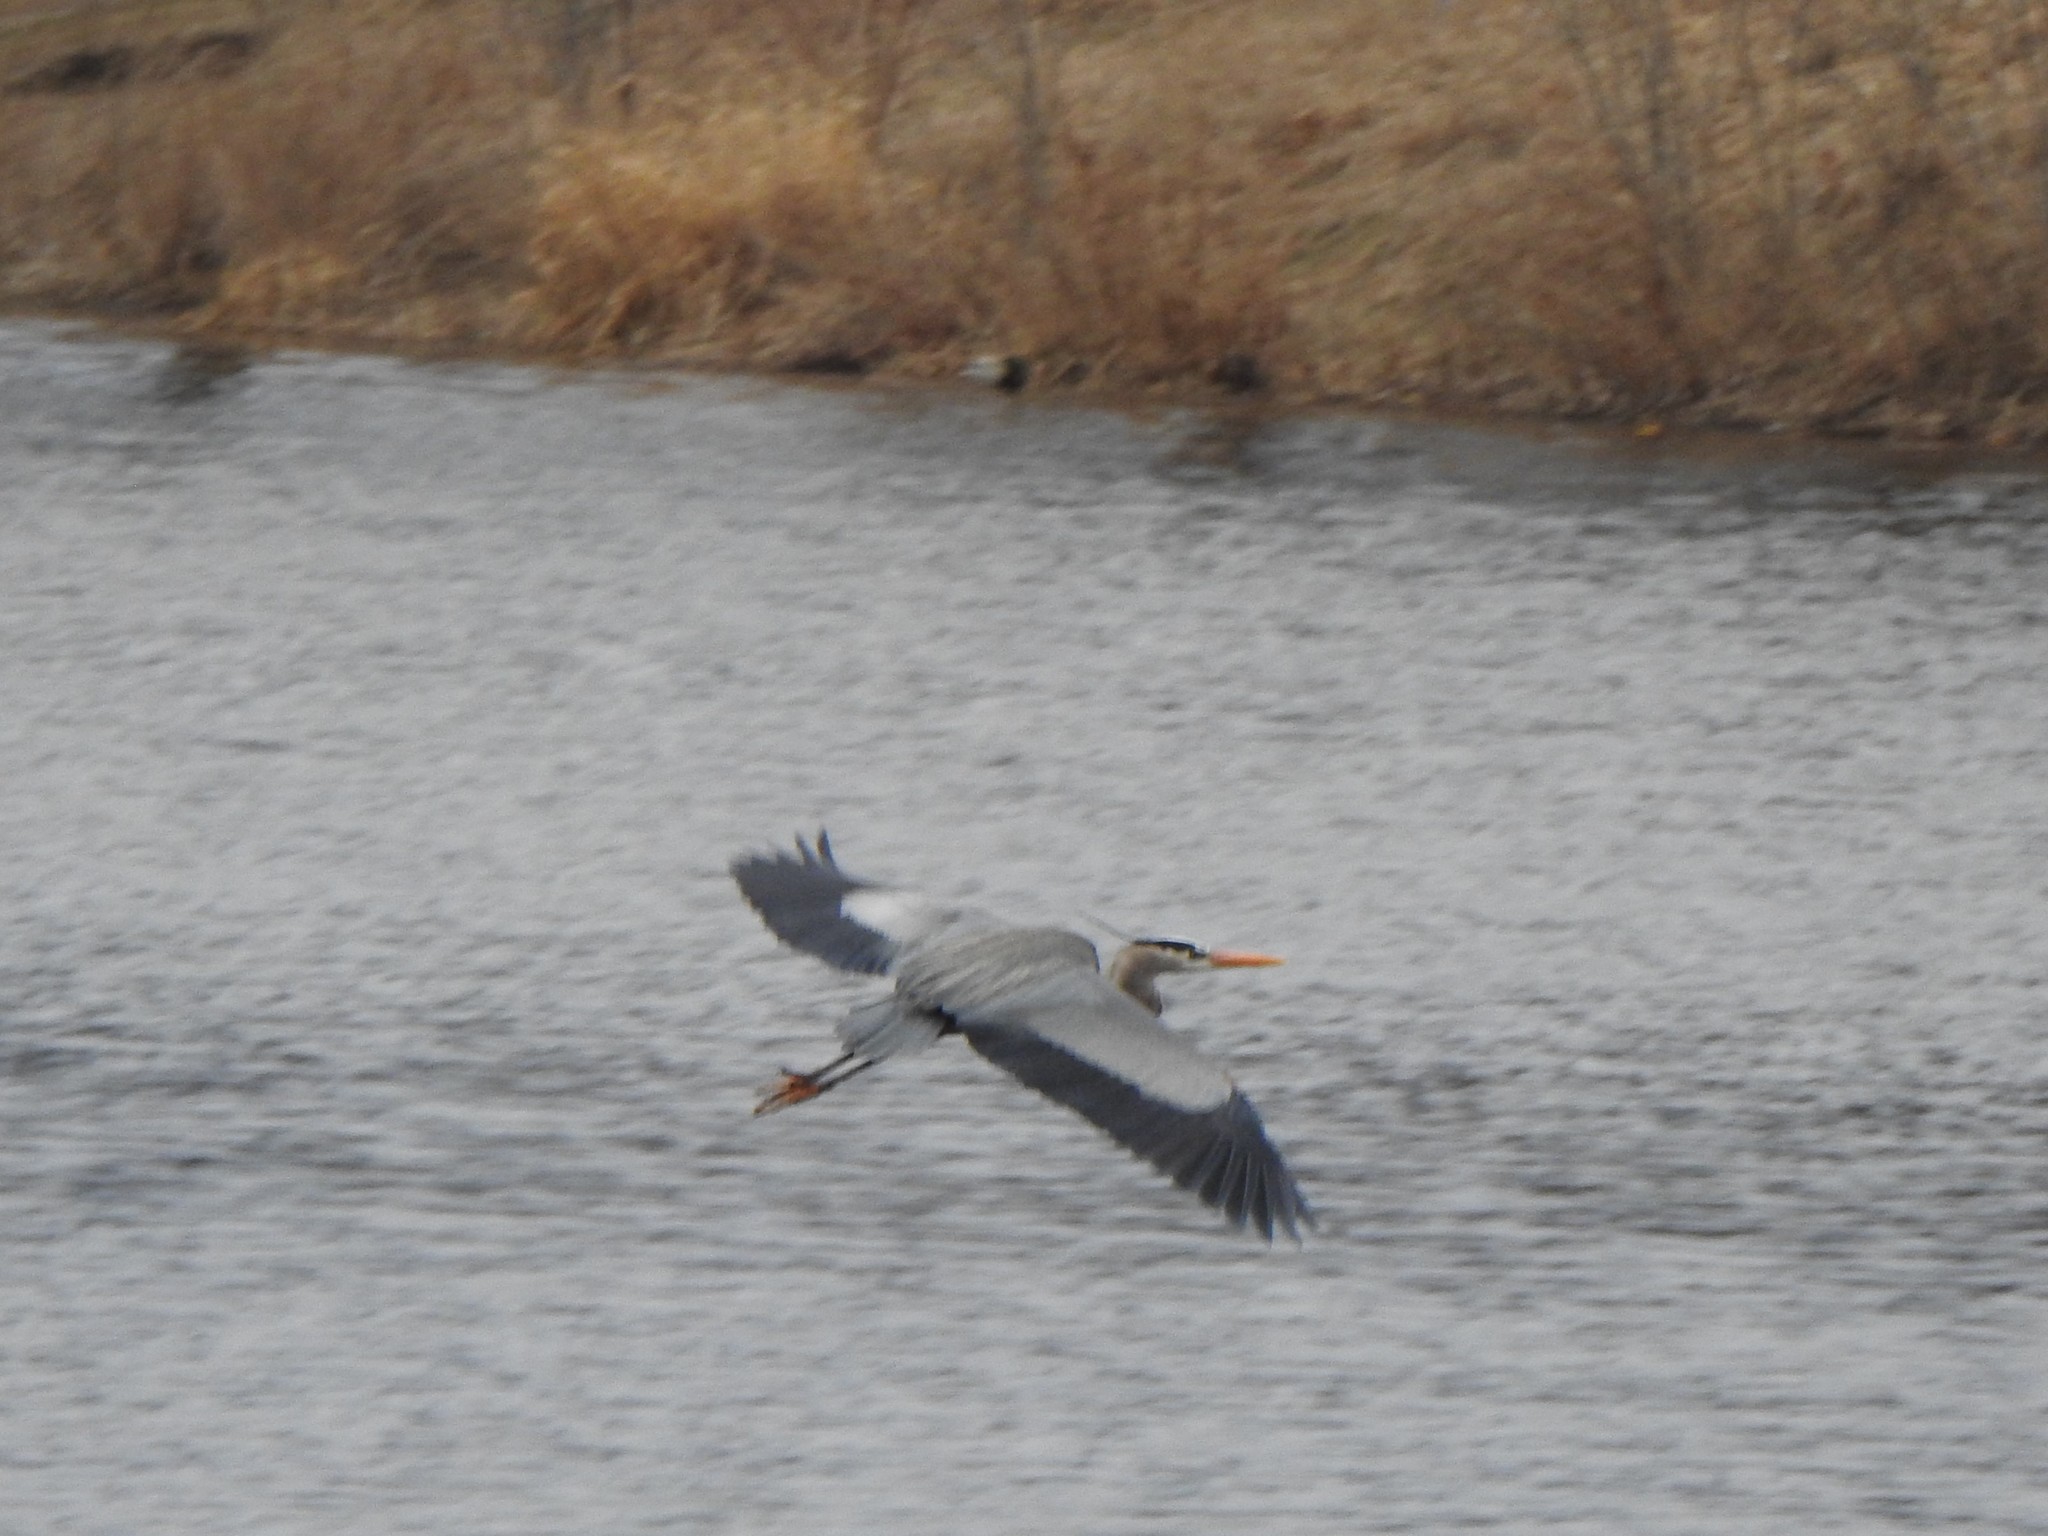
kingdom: Animalia
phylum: Chordata
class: Aves
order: Pelecaniformes
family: Ardeidae
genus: Ardea
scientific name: Ardea herodias
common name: Great blue heron
